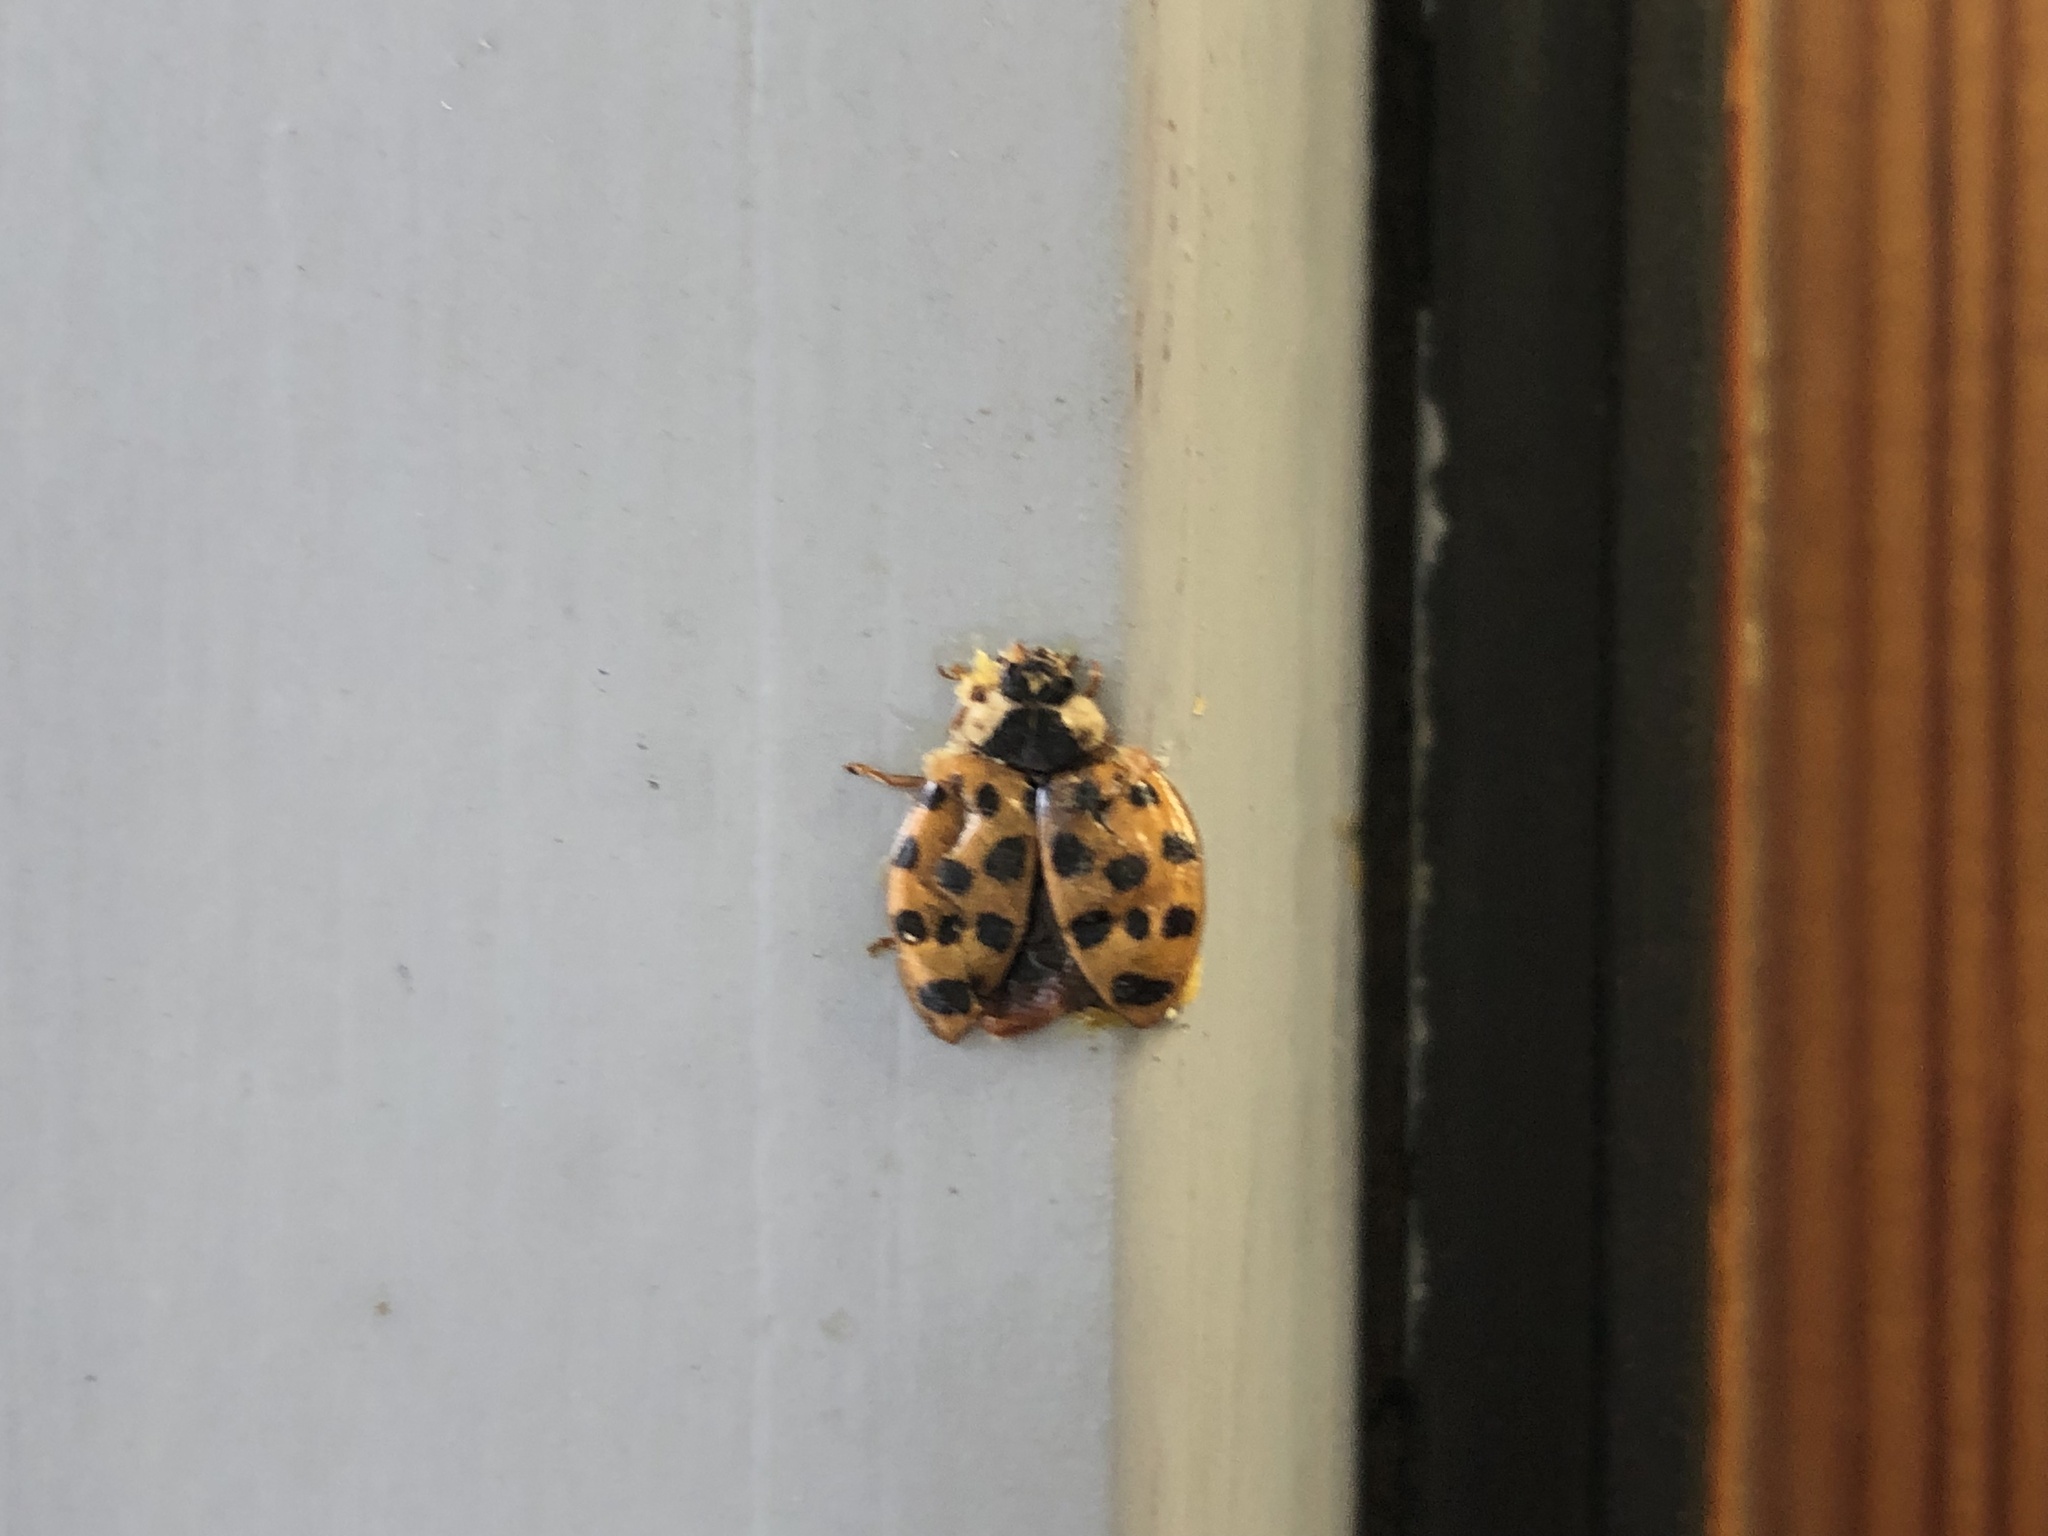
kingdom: Animalia
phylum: Arthropoda
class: Insecta
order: Coleoptera
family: Coccinellidae
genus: Harmonia
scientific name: Harmonia axyridis
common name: Harlequin ladybird
